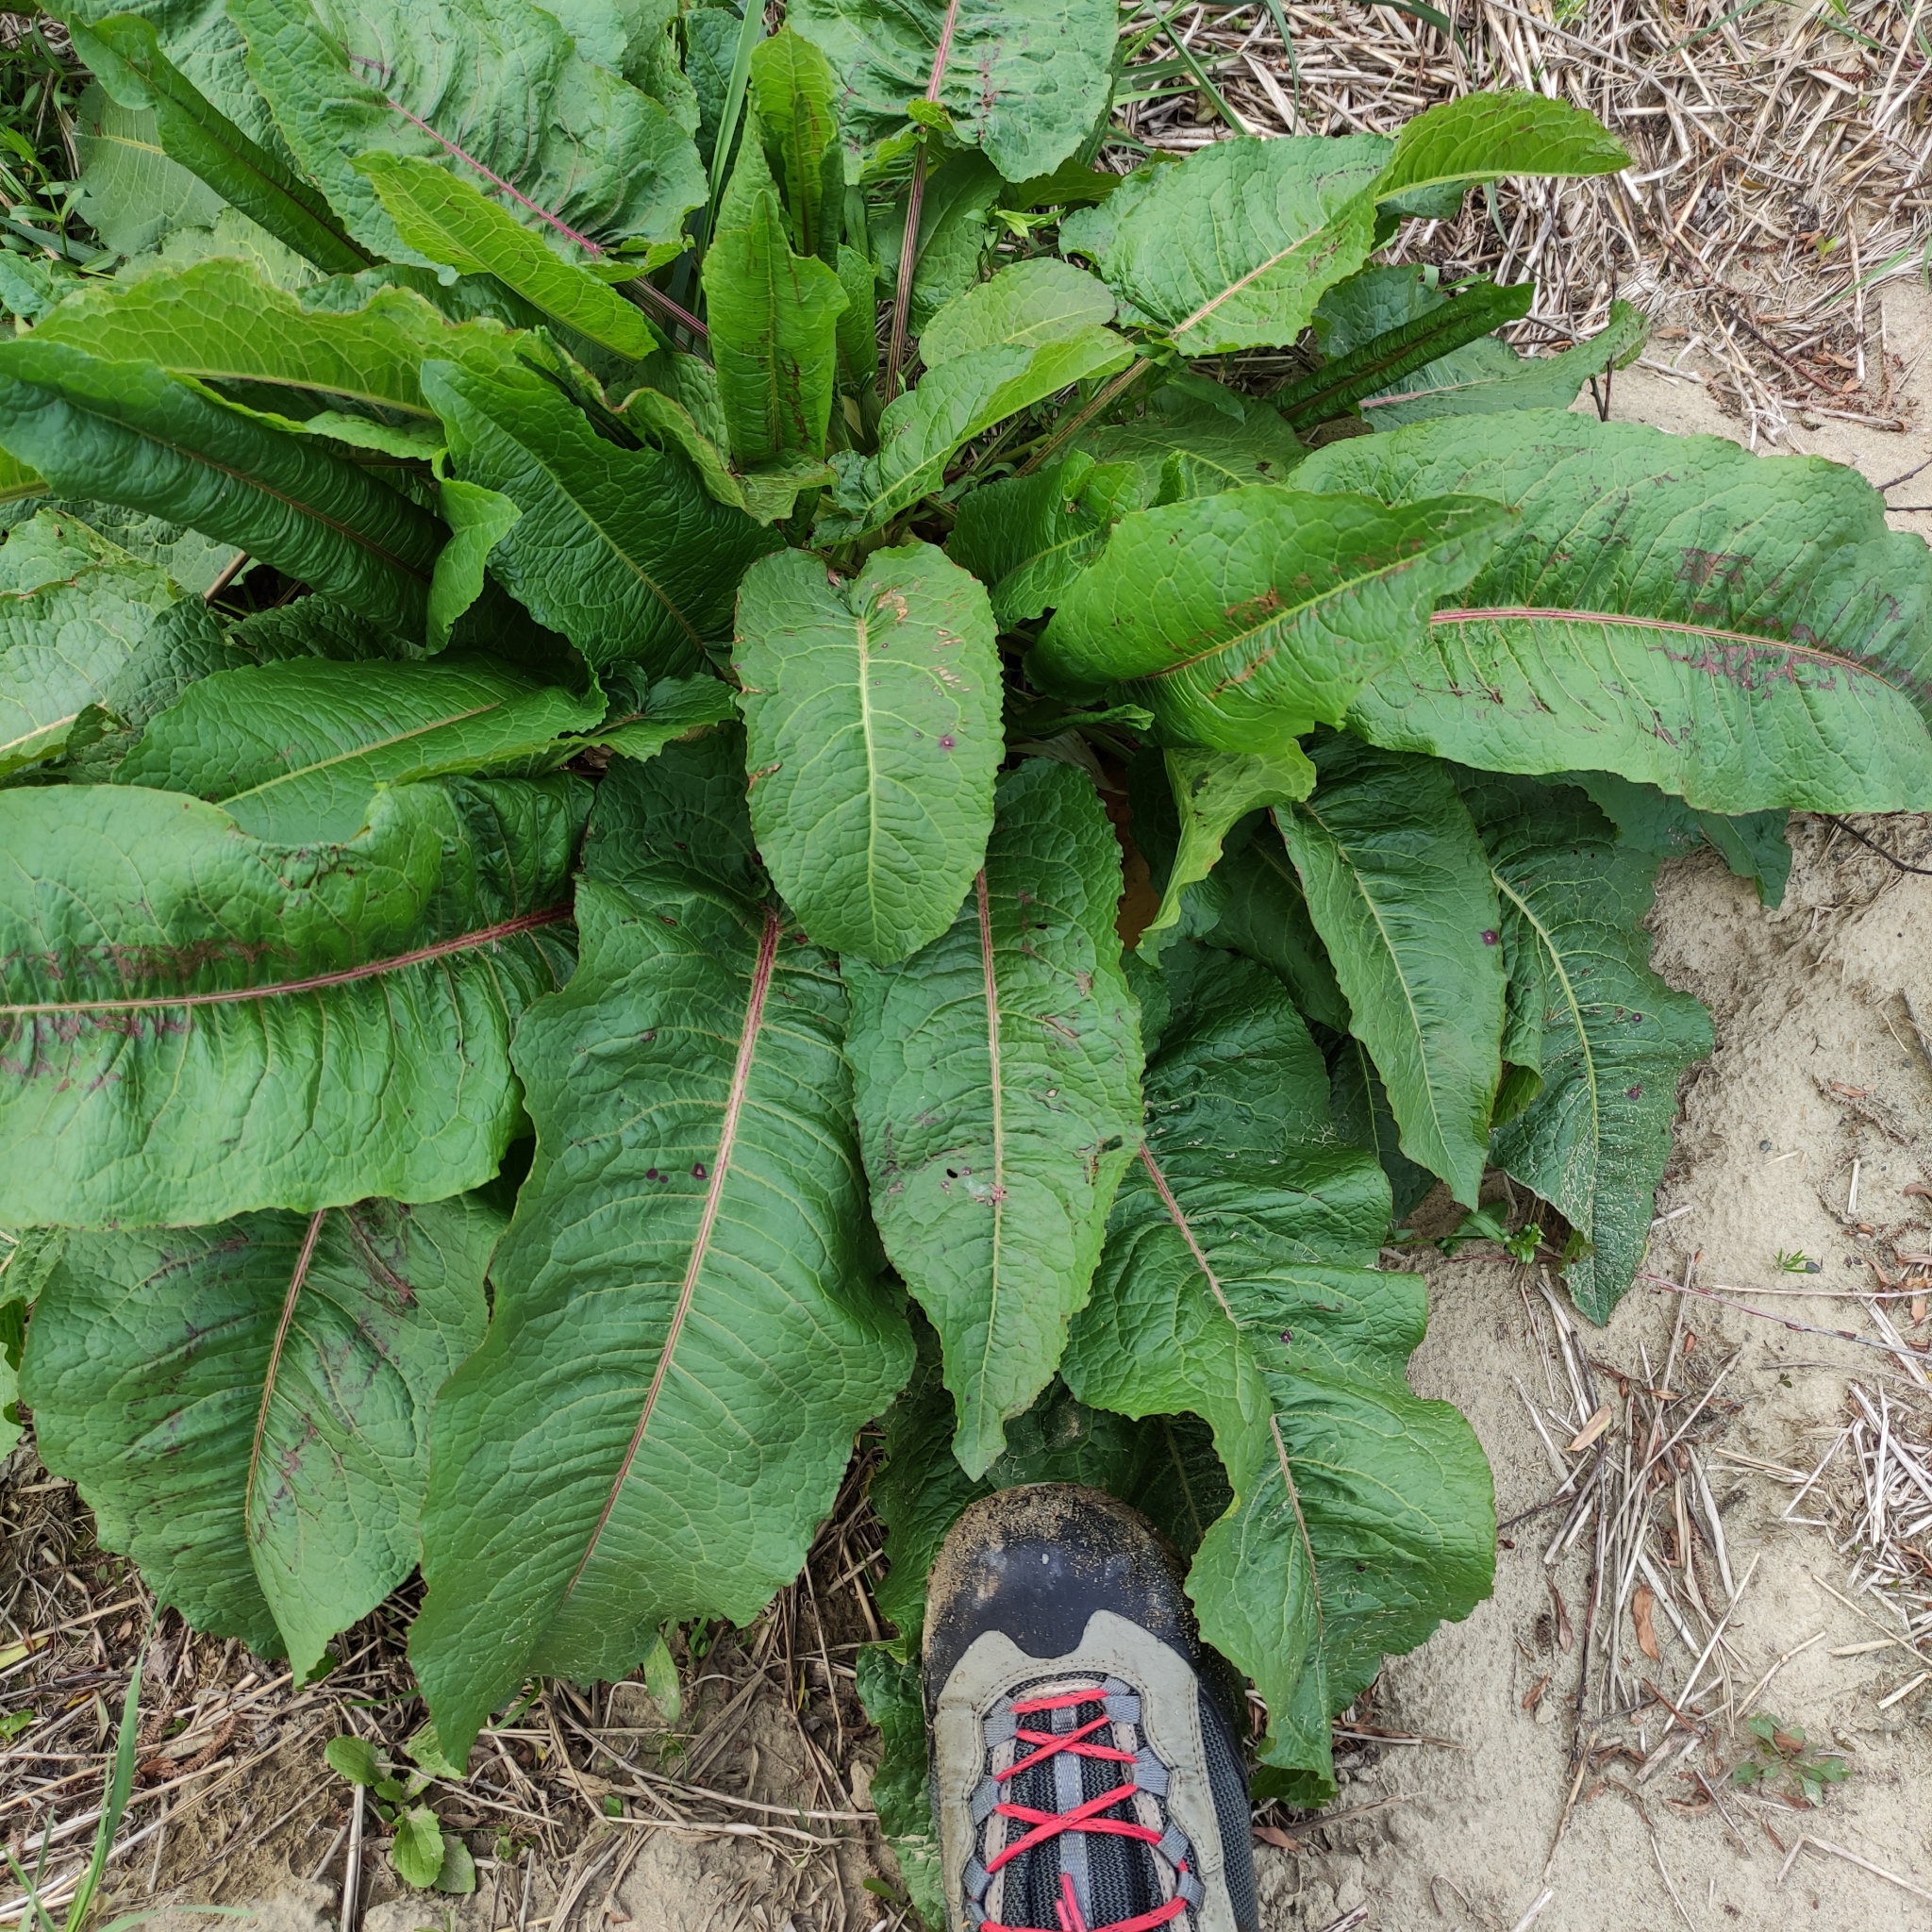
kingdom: Plantae
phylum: Tracheophyta
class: Magnoliopsida
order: Caryophyllales
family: Polygonaceae
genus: Rumex
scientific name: Rumex obtusifolius
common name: Bitter dock
